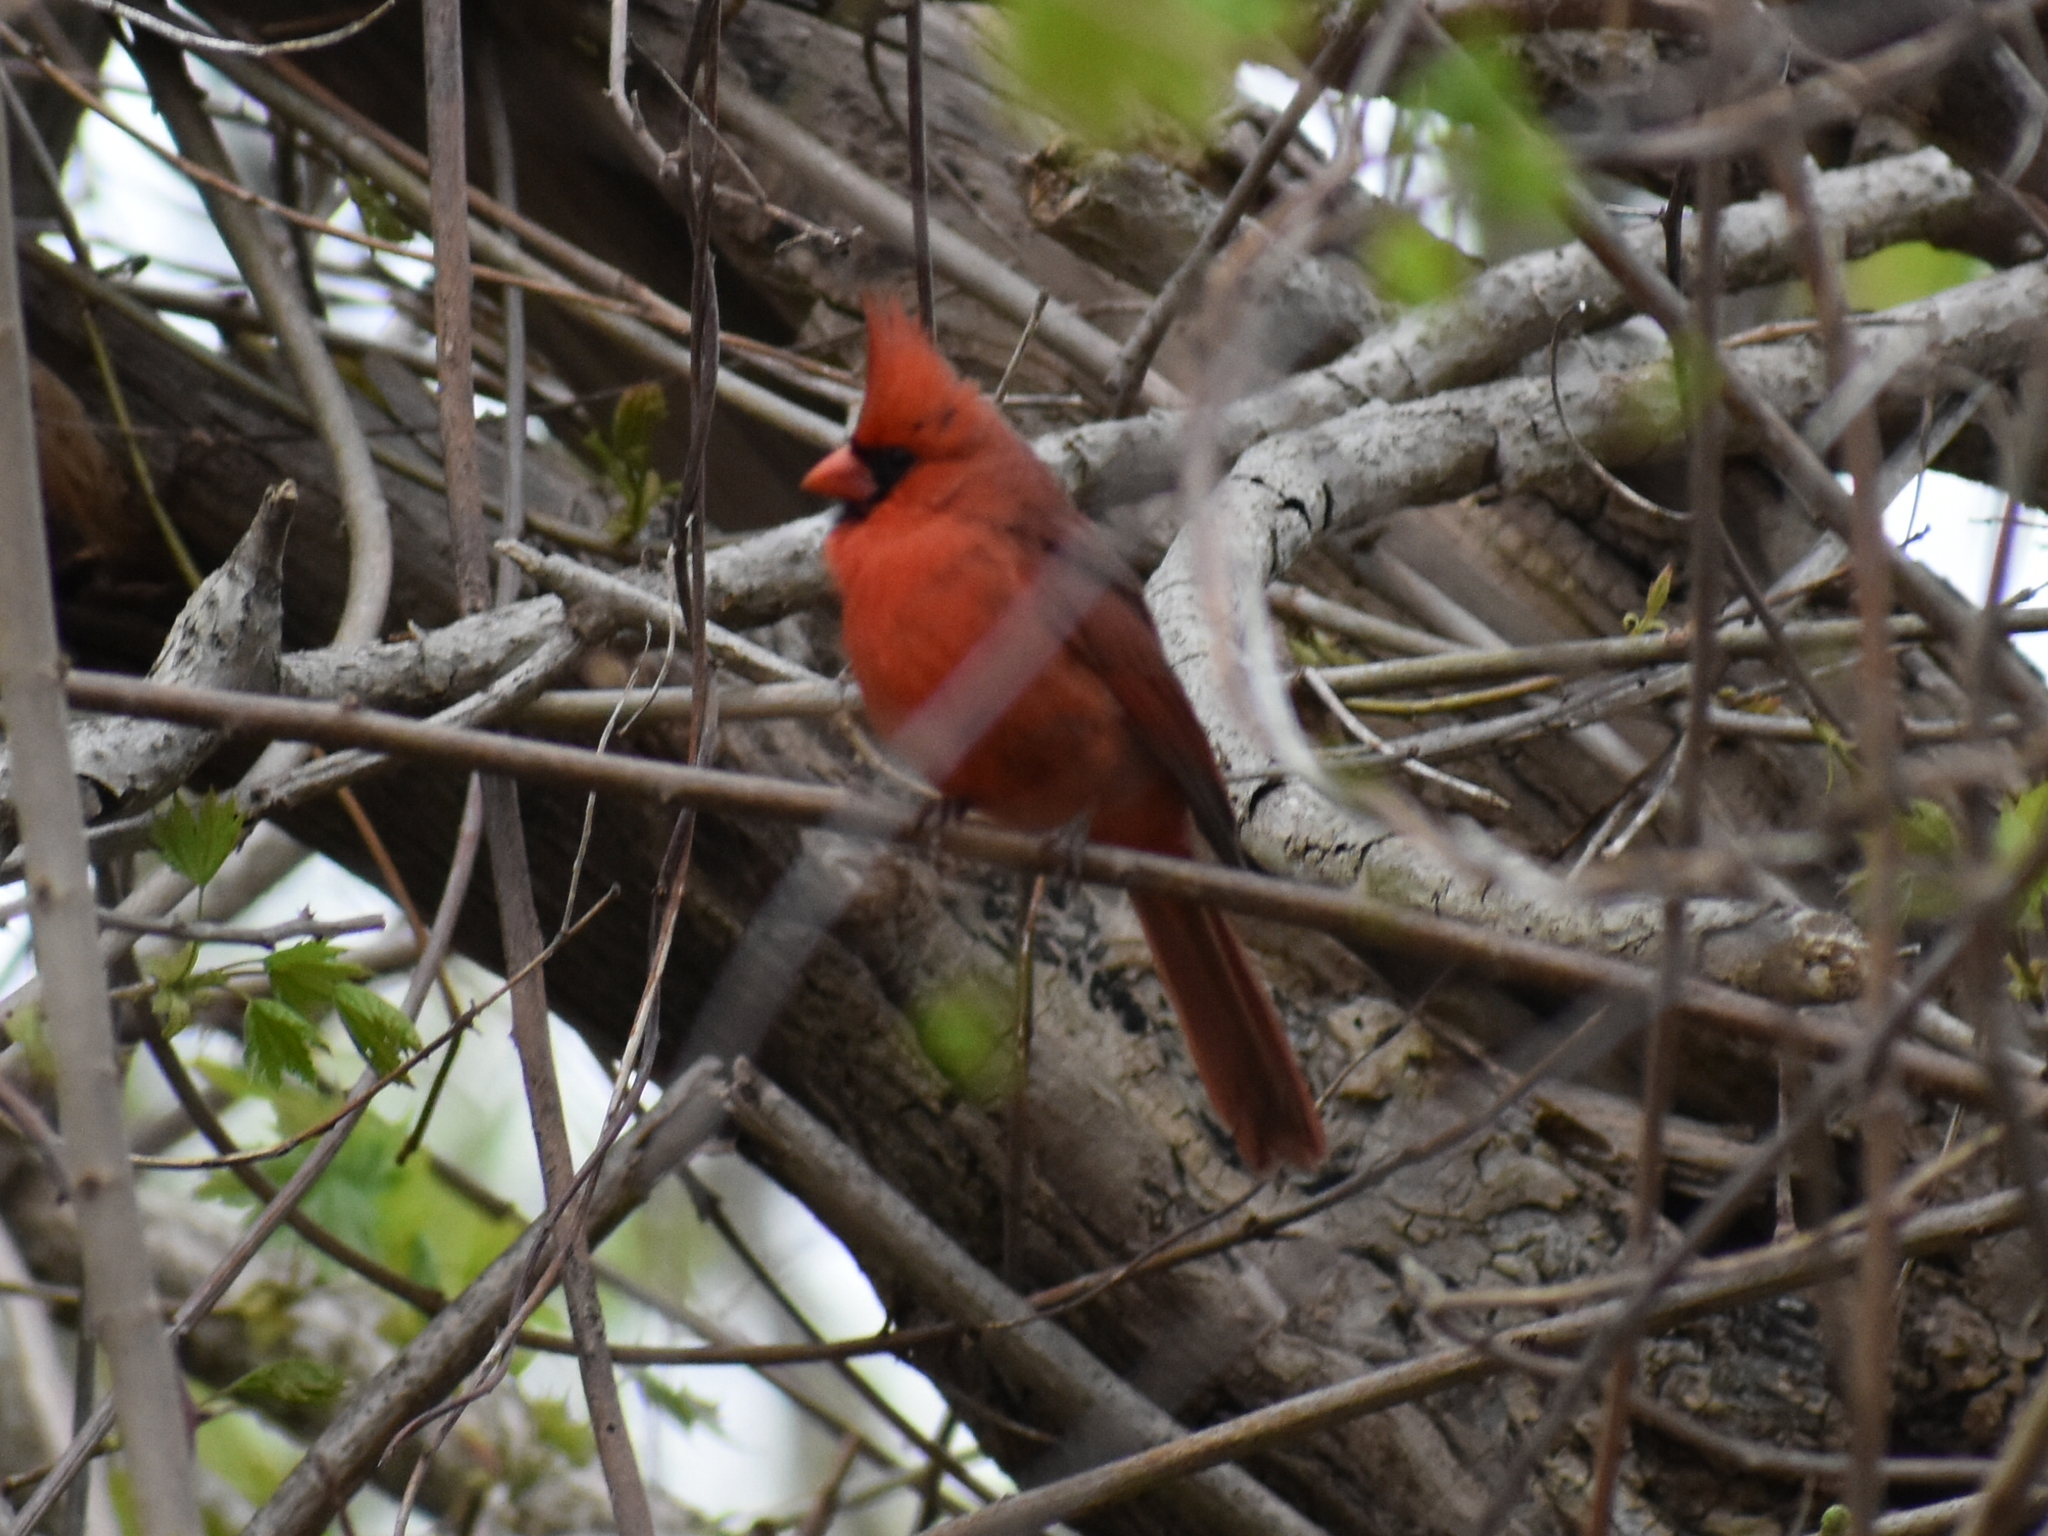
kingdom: Animalia
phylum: Chordata
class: Aves
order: Passeriformes
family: Cardinalidae
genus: Cardinalis
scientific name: Cardinalis cardinalis
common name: Northern cardinal
